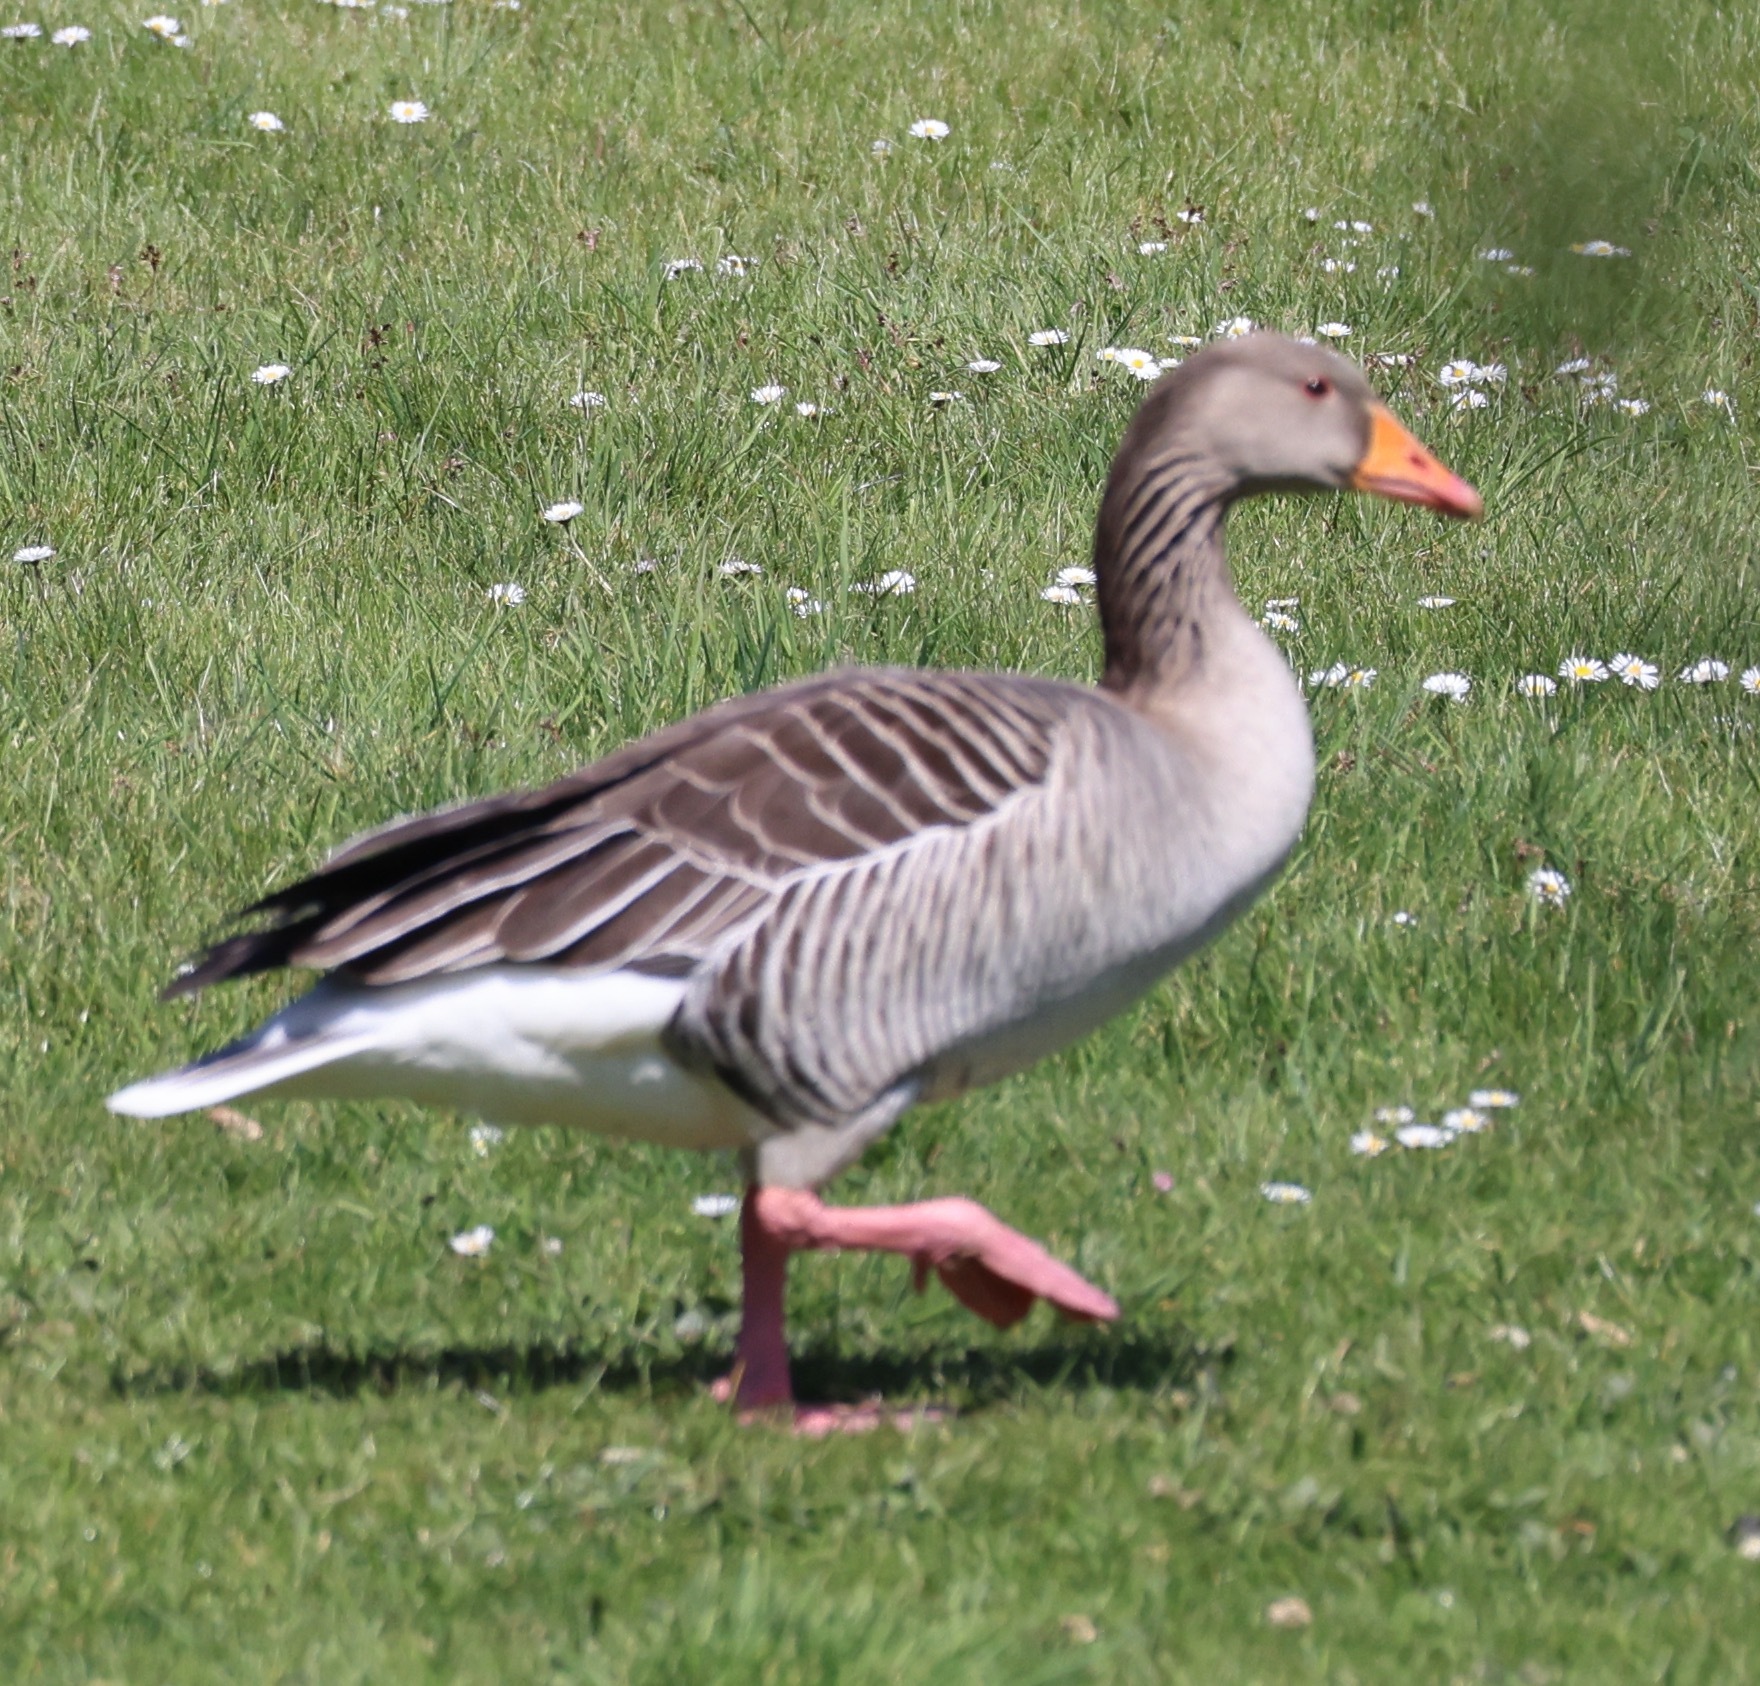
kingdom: Animalia
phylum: Chordata
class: Aves
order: Anseriformes
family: Anatidae
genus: Anser
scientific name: Anser anser
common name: Greylag goose
